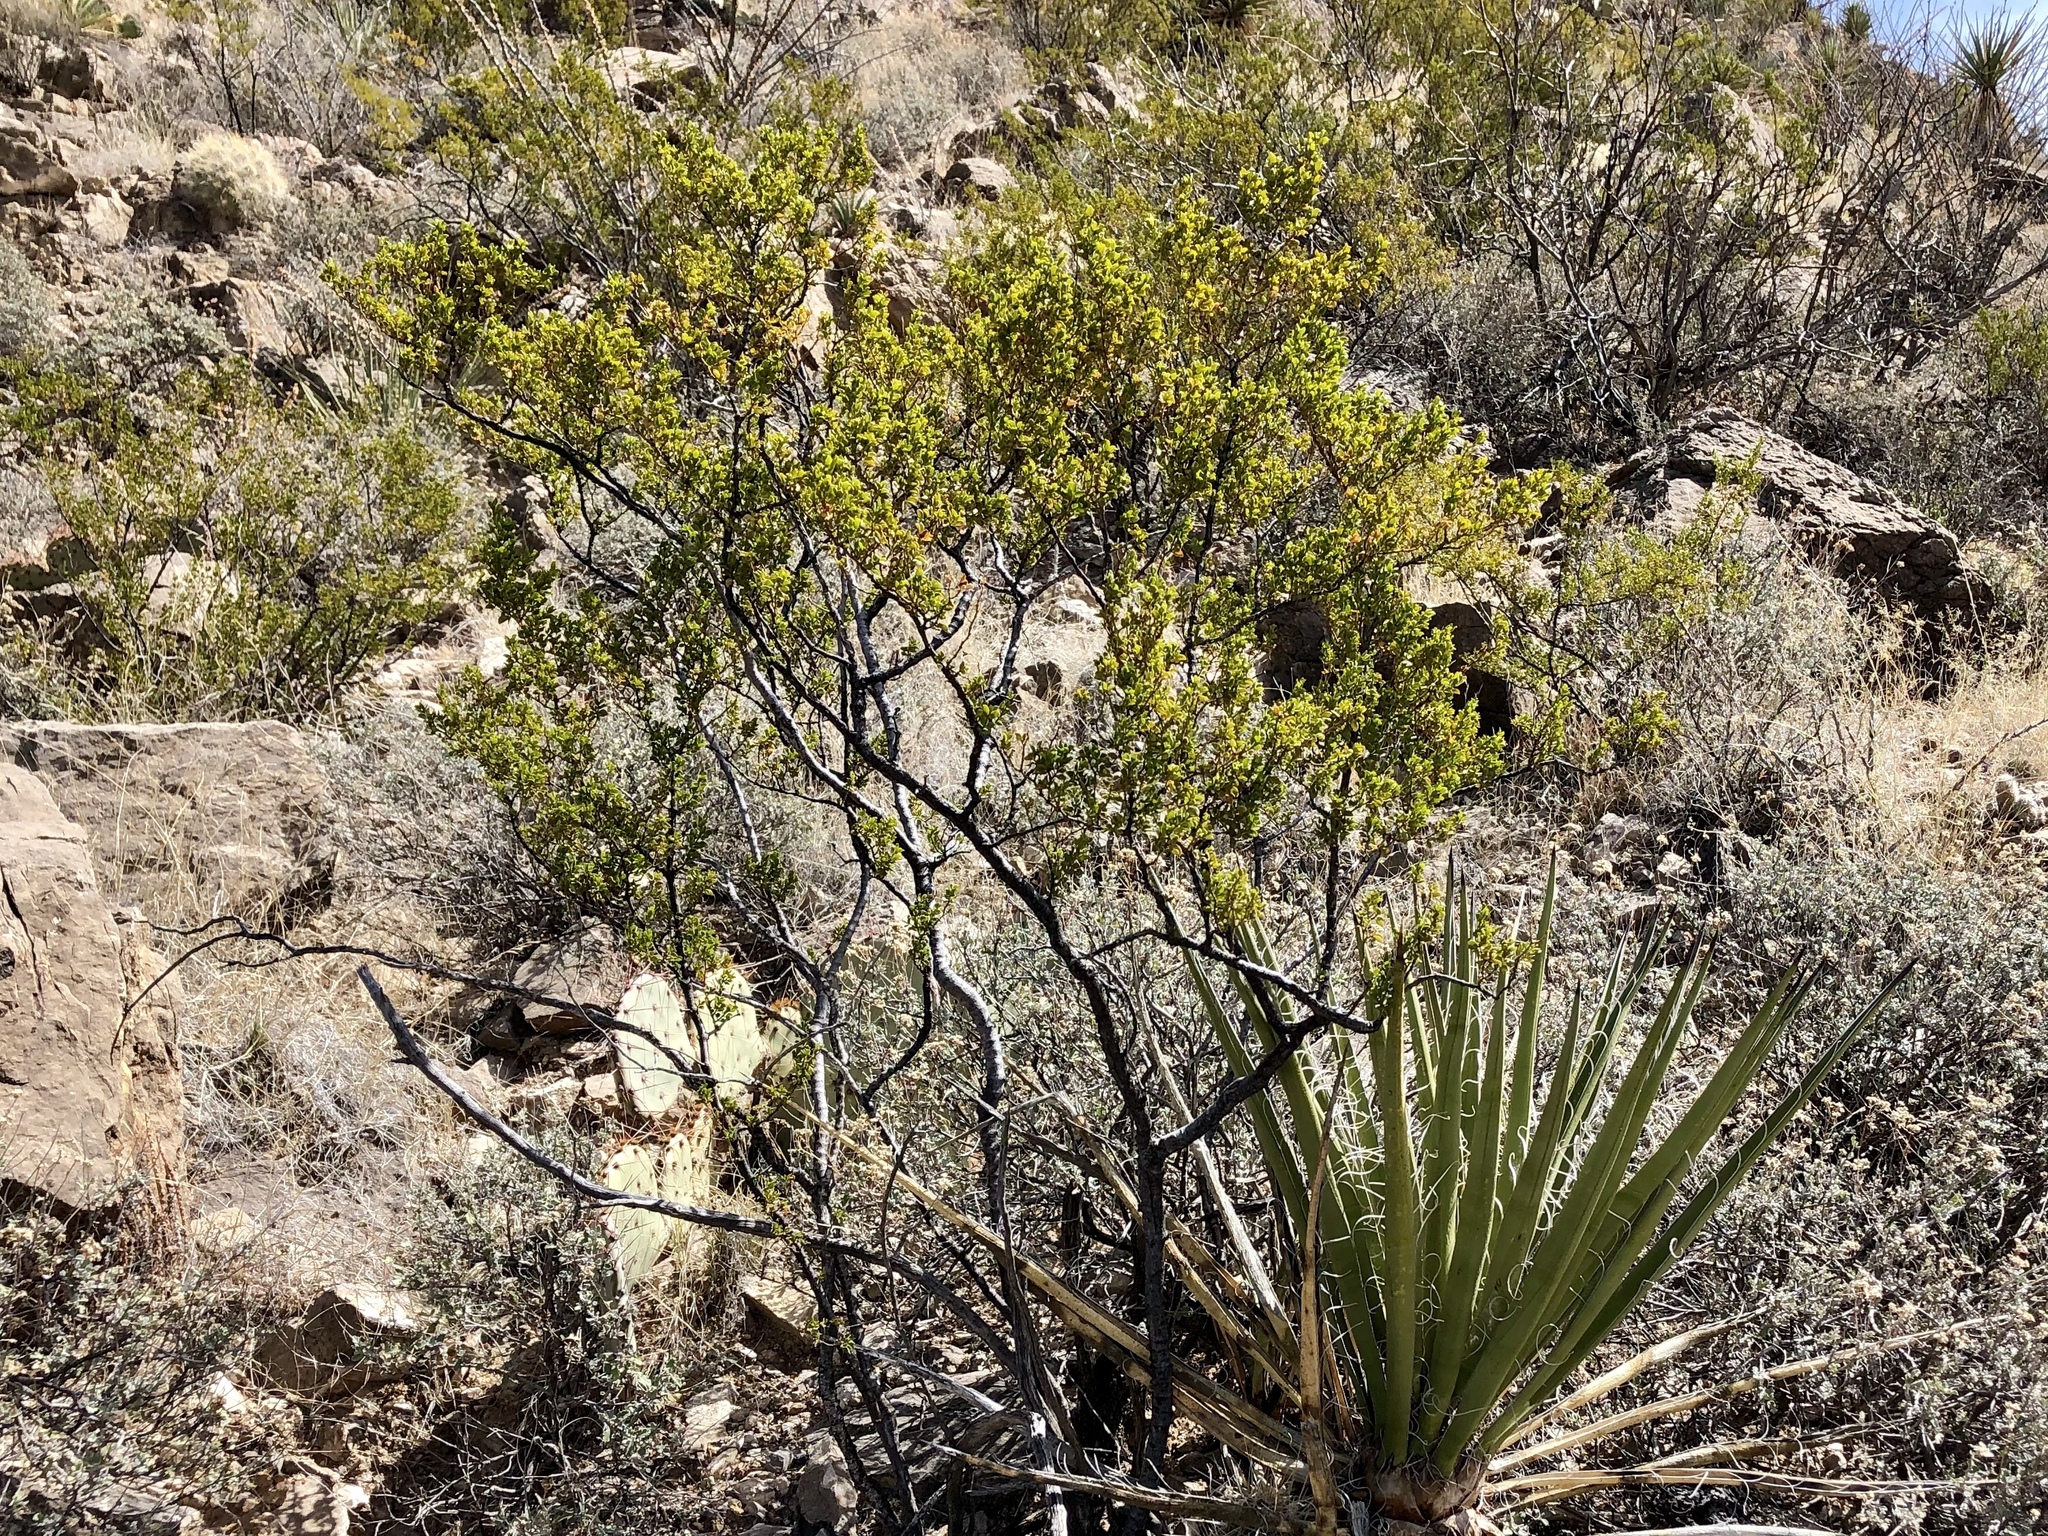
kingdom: Plantae
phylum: Tracheophyta
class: Magnoliopsida
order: Zygophyllales
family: Zygophyllaceae
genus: Larrea
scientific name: Larrea tridentata
